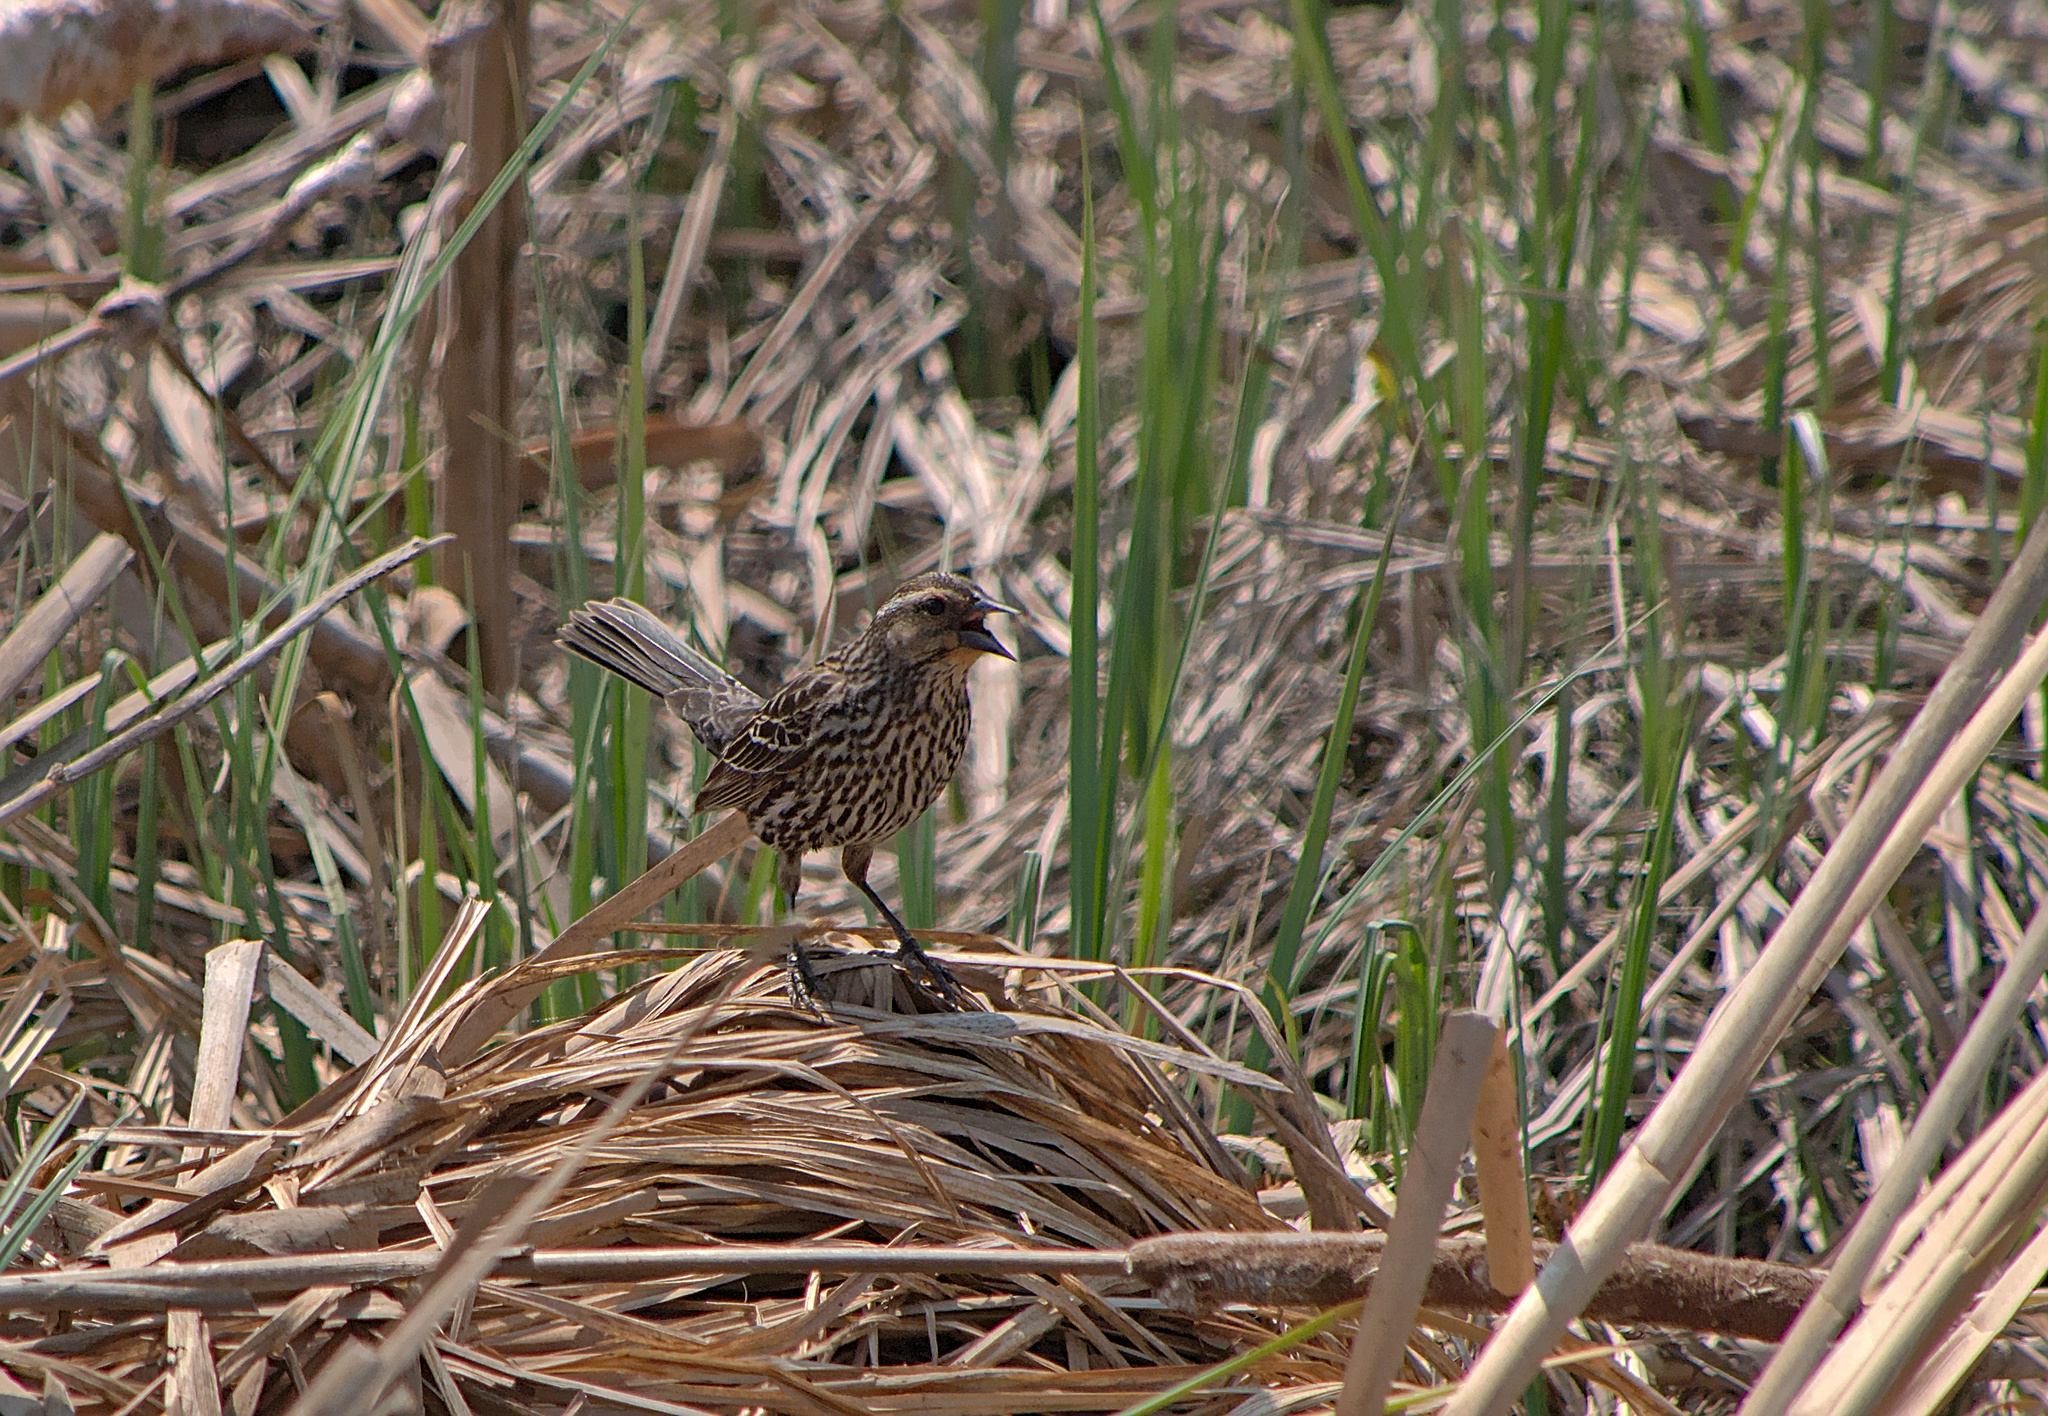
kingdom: Animalia
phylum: Chordata
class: Aves
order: Passeriformes
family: Icteridae
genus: Agelaius
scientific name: Agelaius phoeniceus
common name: Red-winged blackbird
